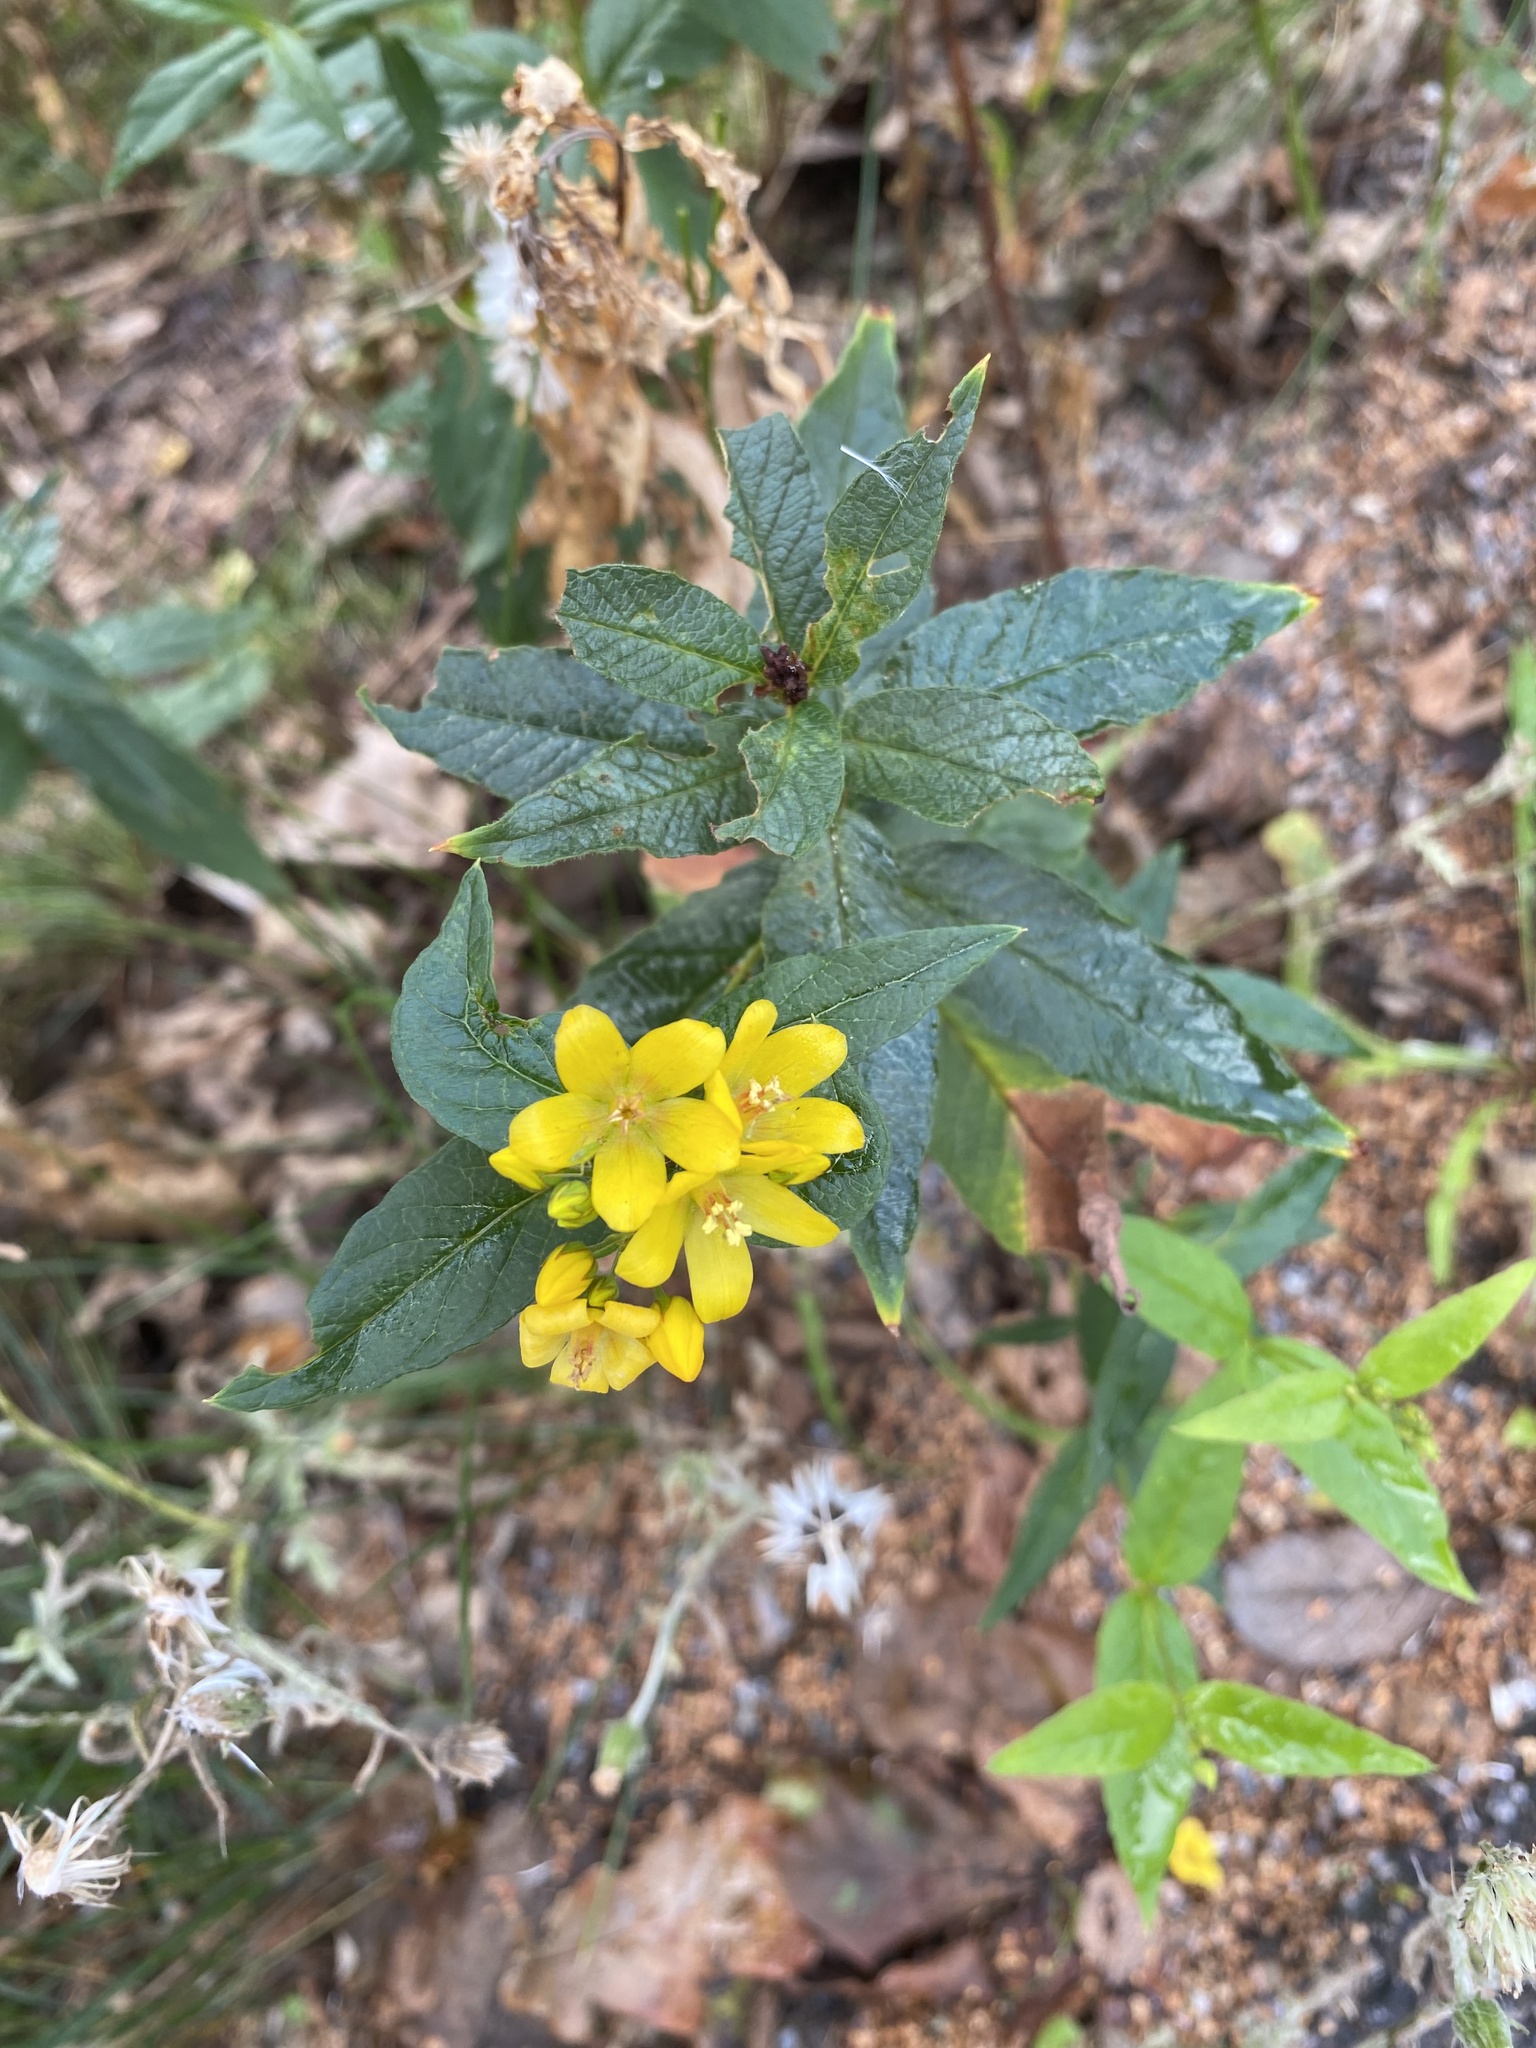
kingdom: Plantae
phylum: Tracheophyta
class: Magnoliopsida
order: Ericales
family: Primulaceae
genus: Lysimachia
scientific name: Lysimachia vulgaris
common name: Yellow loosestrife
